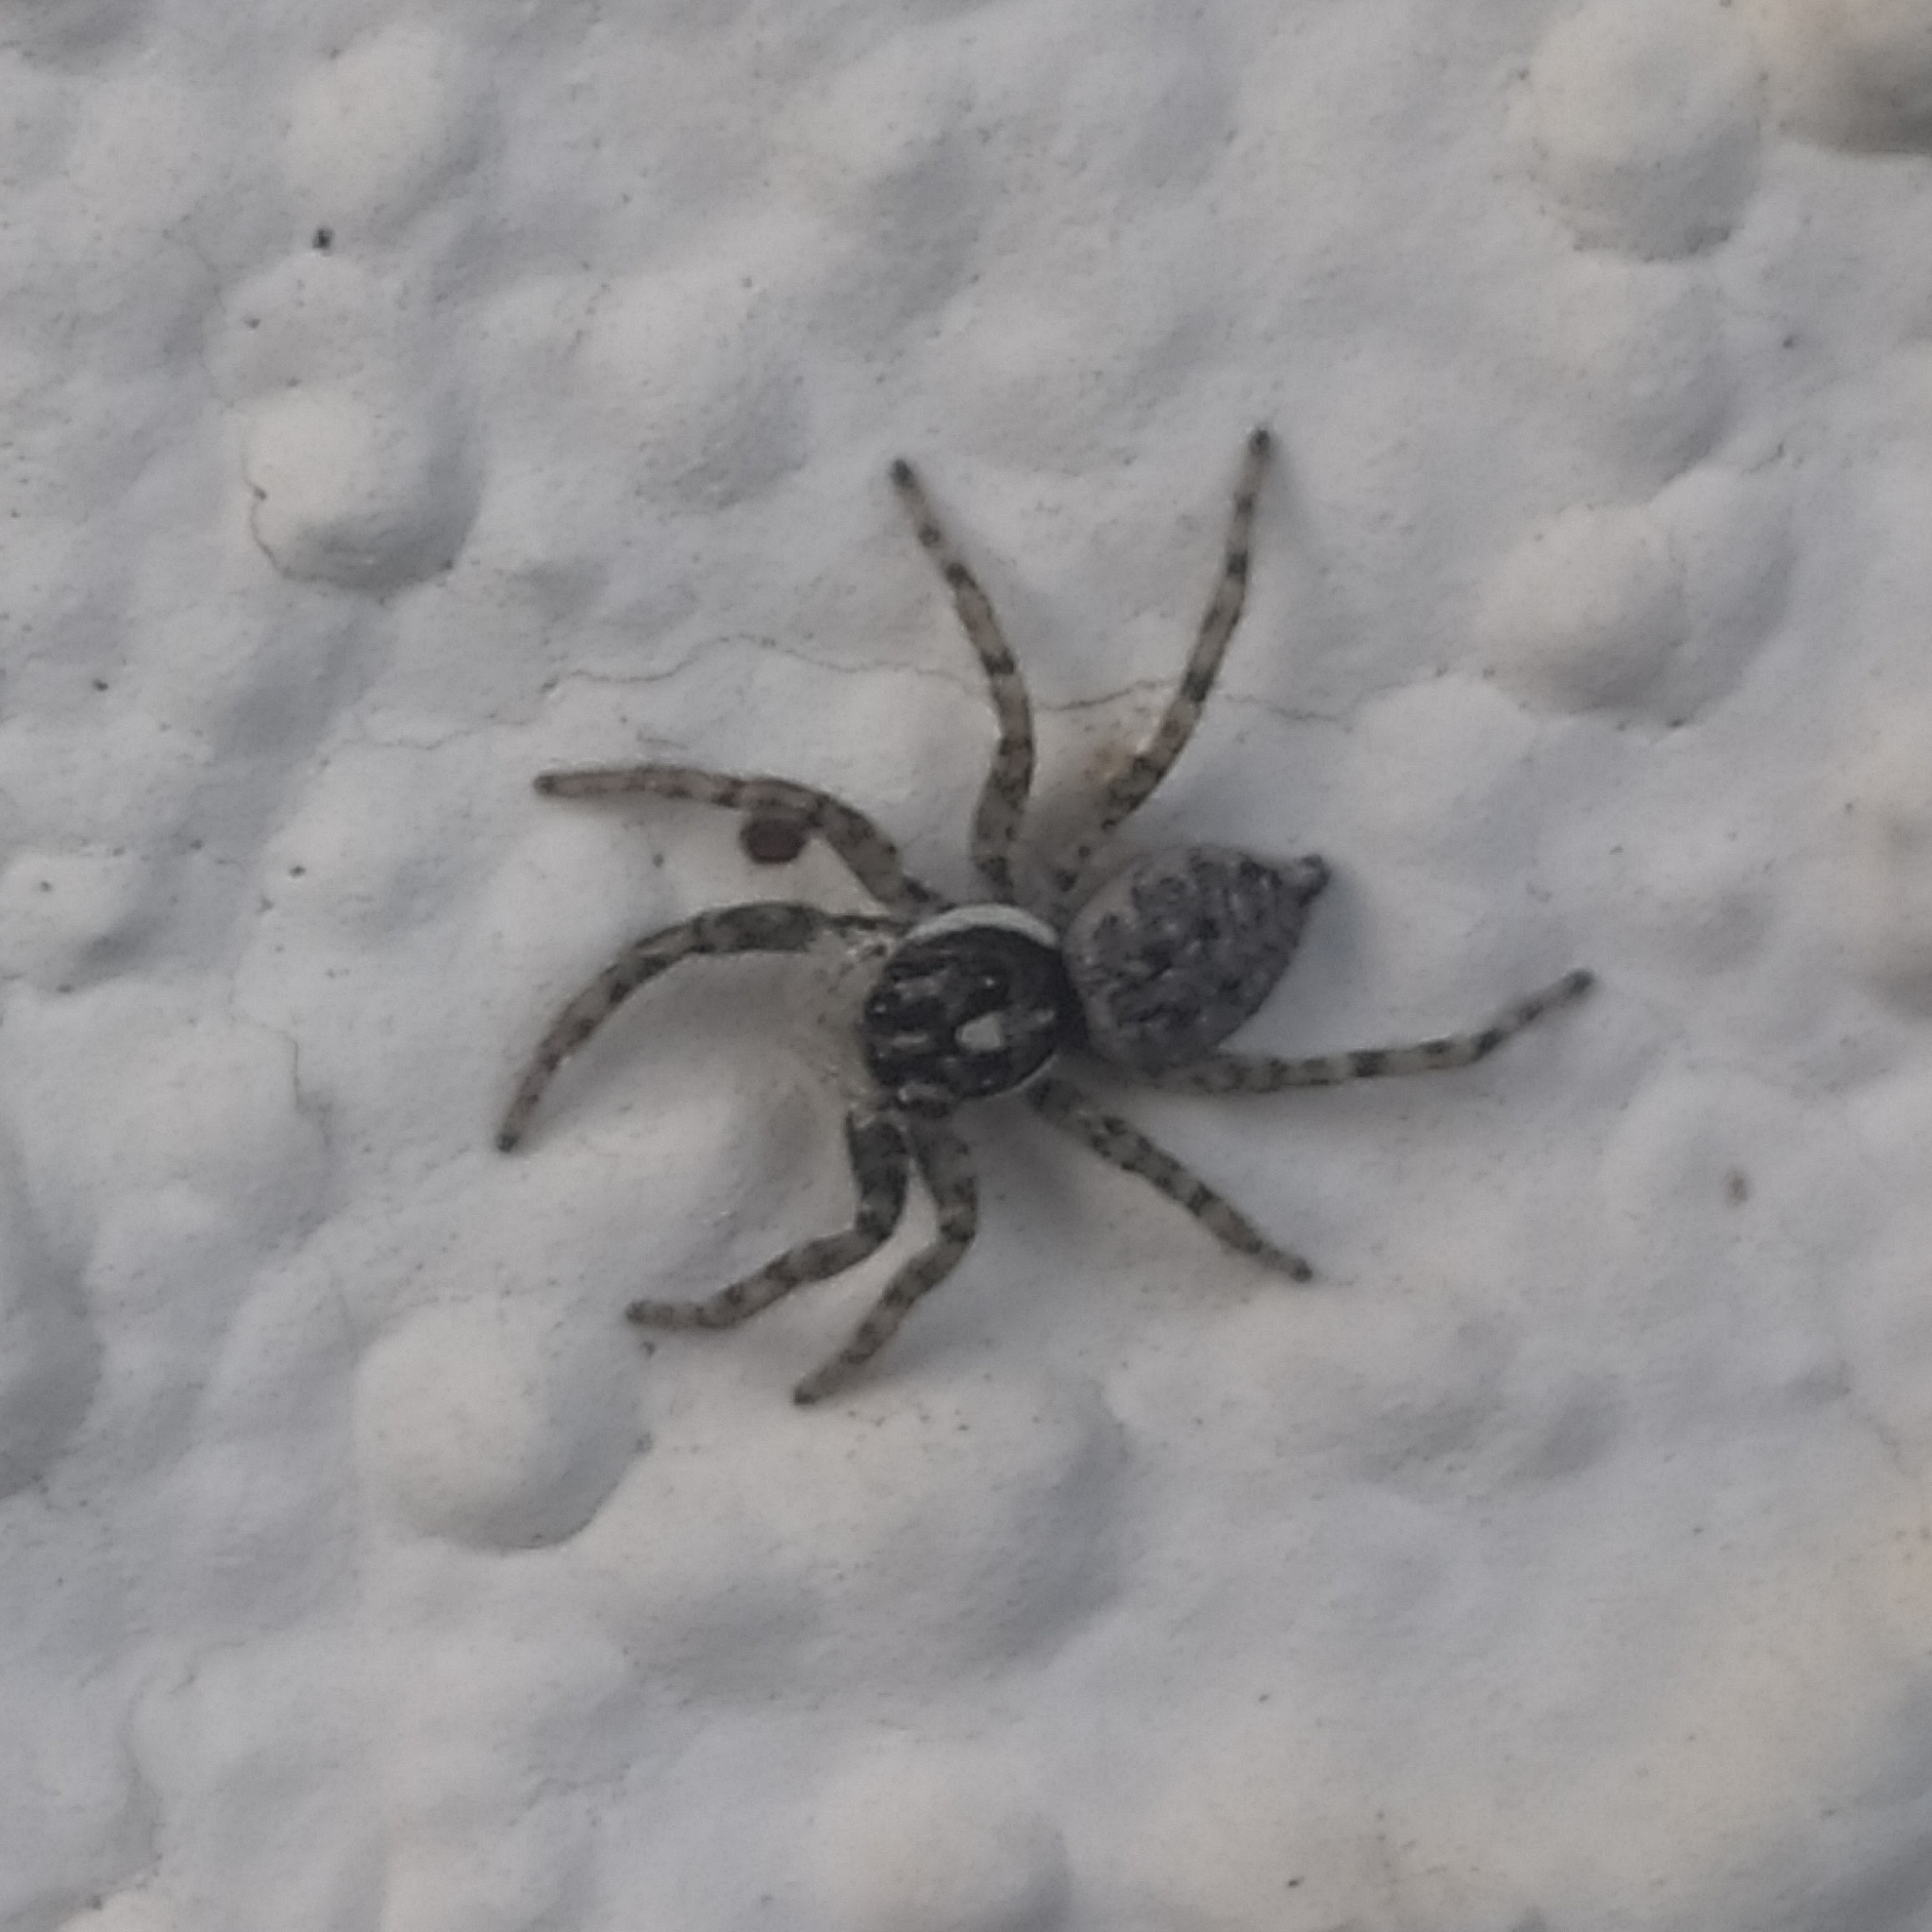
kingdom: Animalia
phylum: Arthropoda
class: Arachnida
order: Araneae
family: Salticidae
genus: Menemerus
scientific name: Menemerus semilimbatus
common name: Jumping spider
